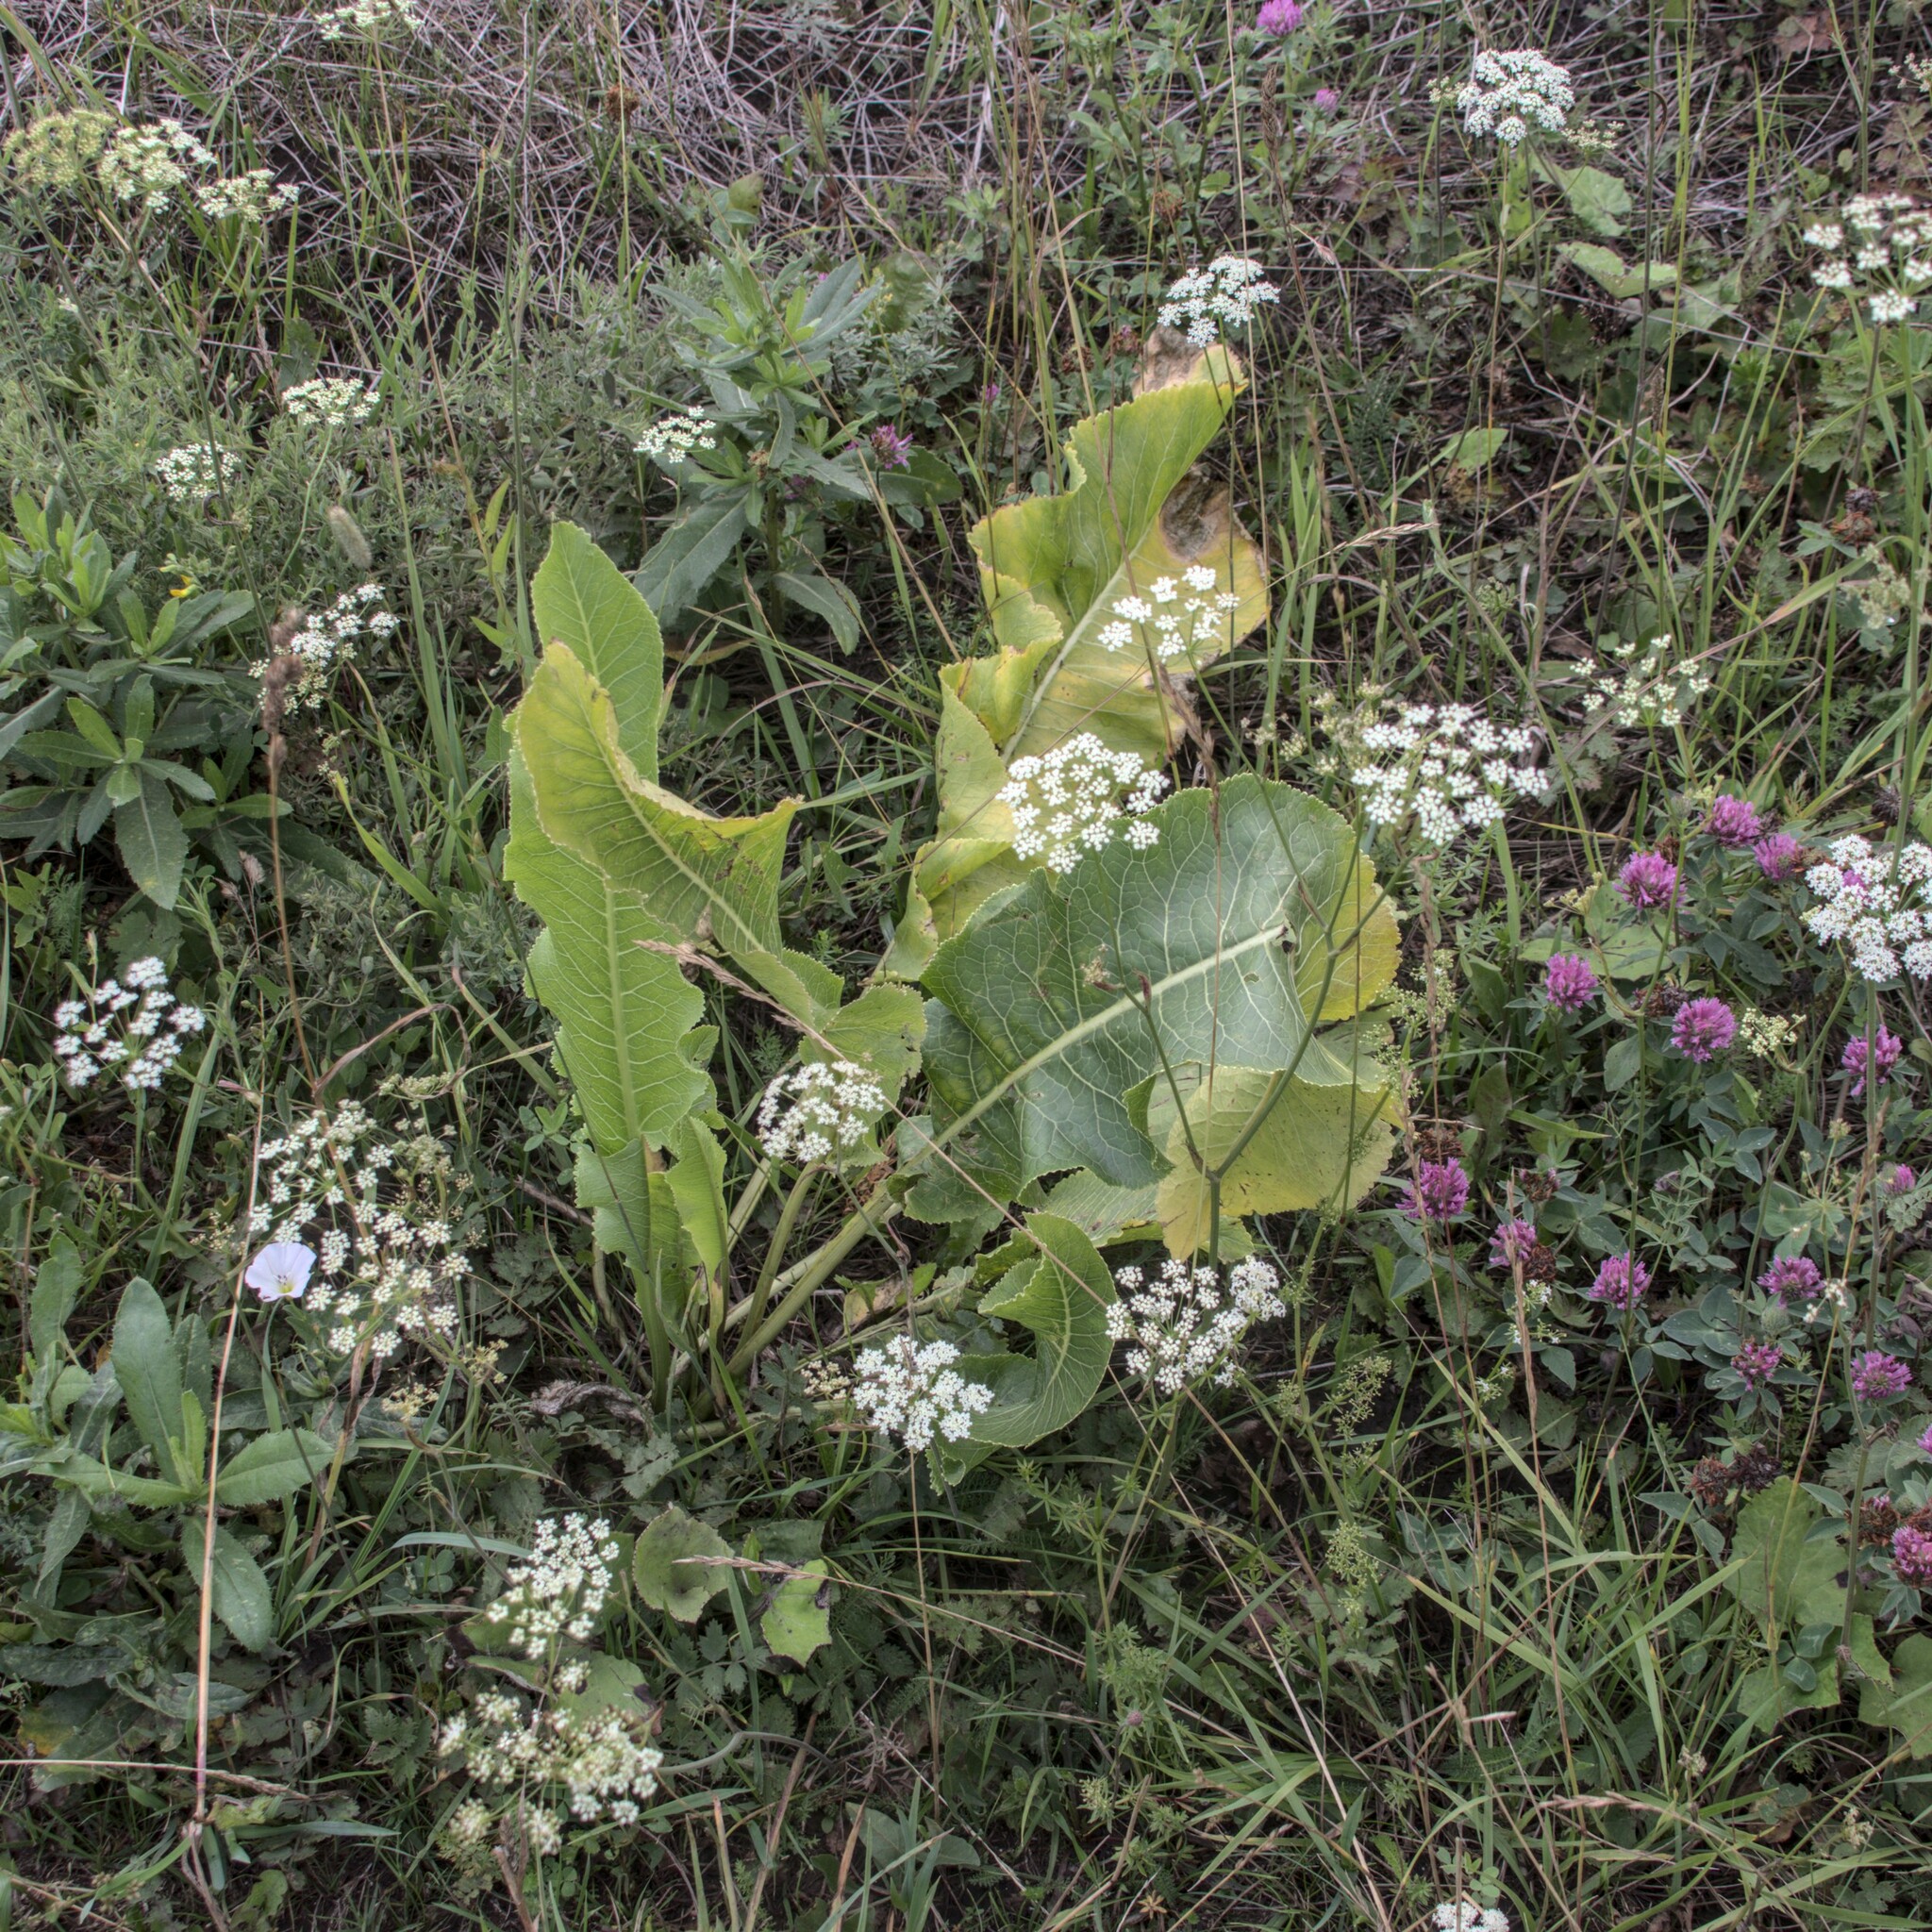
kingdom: Plantae
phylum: Tracheophyta
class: Magnoliopsida
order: Brassicales
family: Brassicaceae
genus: Armoracia
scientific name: Armoracia rusticana
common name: Horseradish
